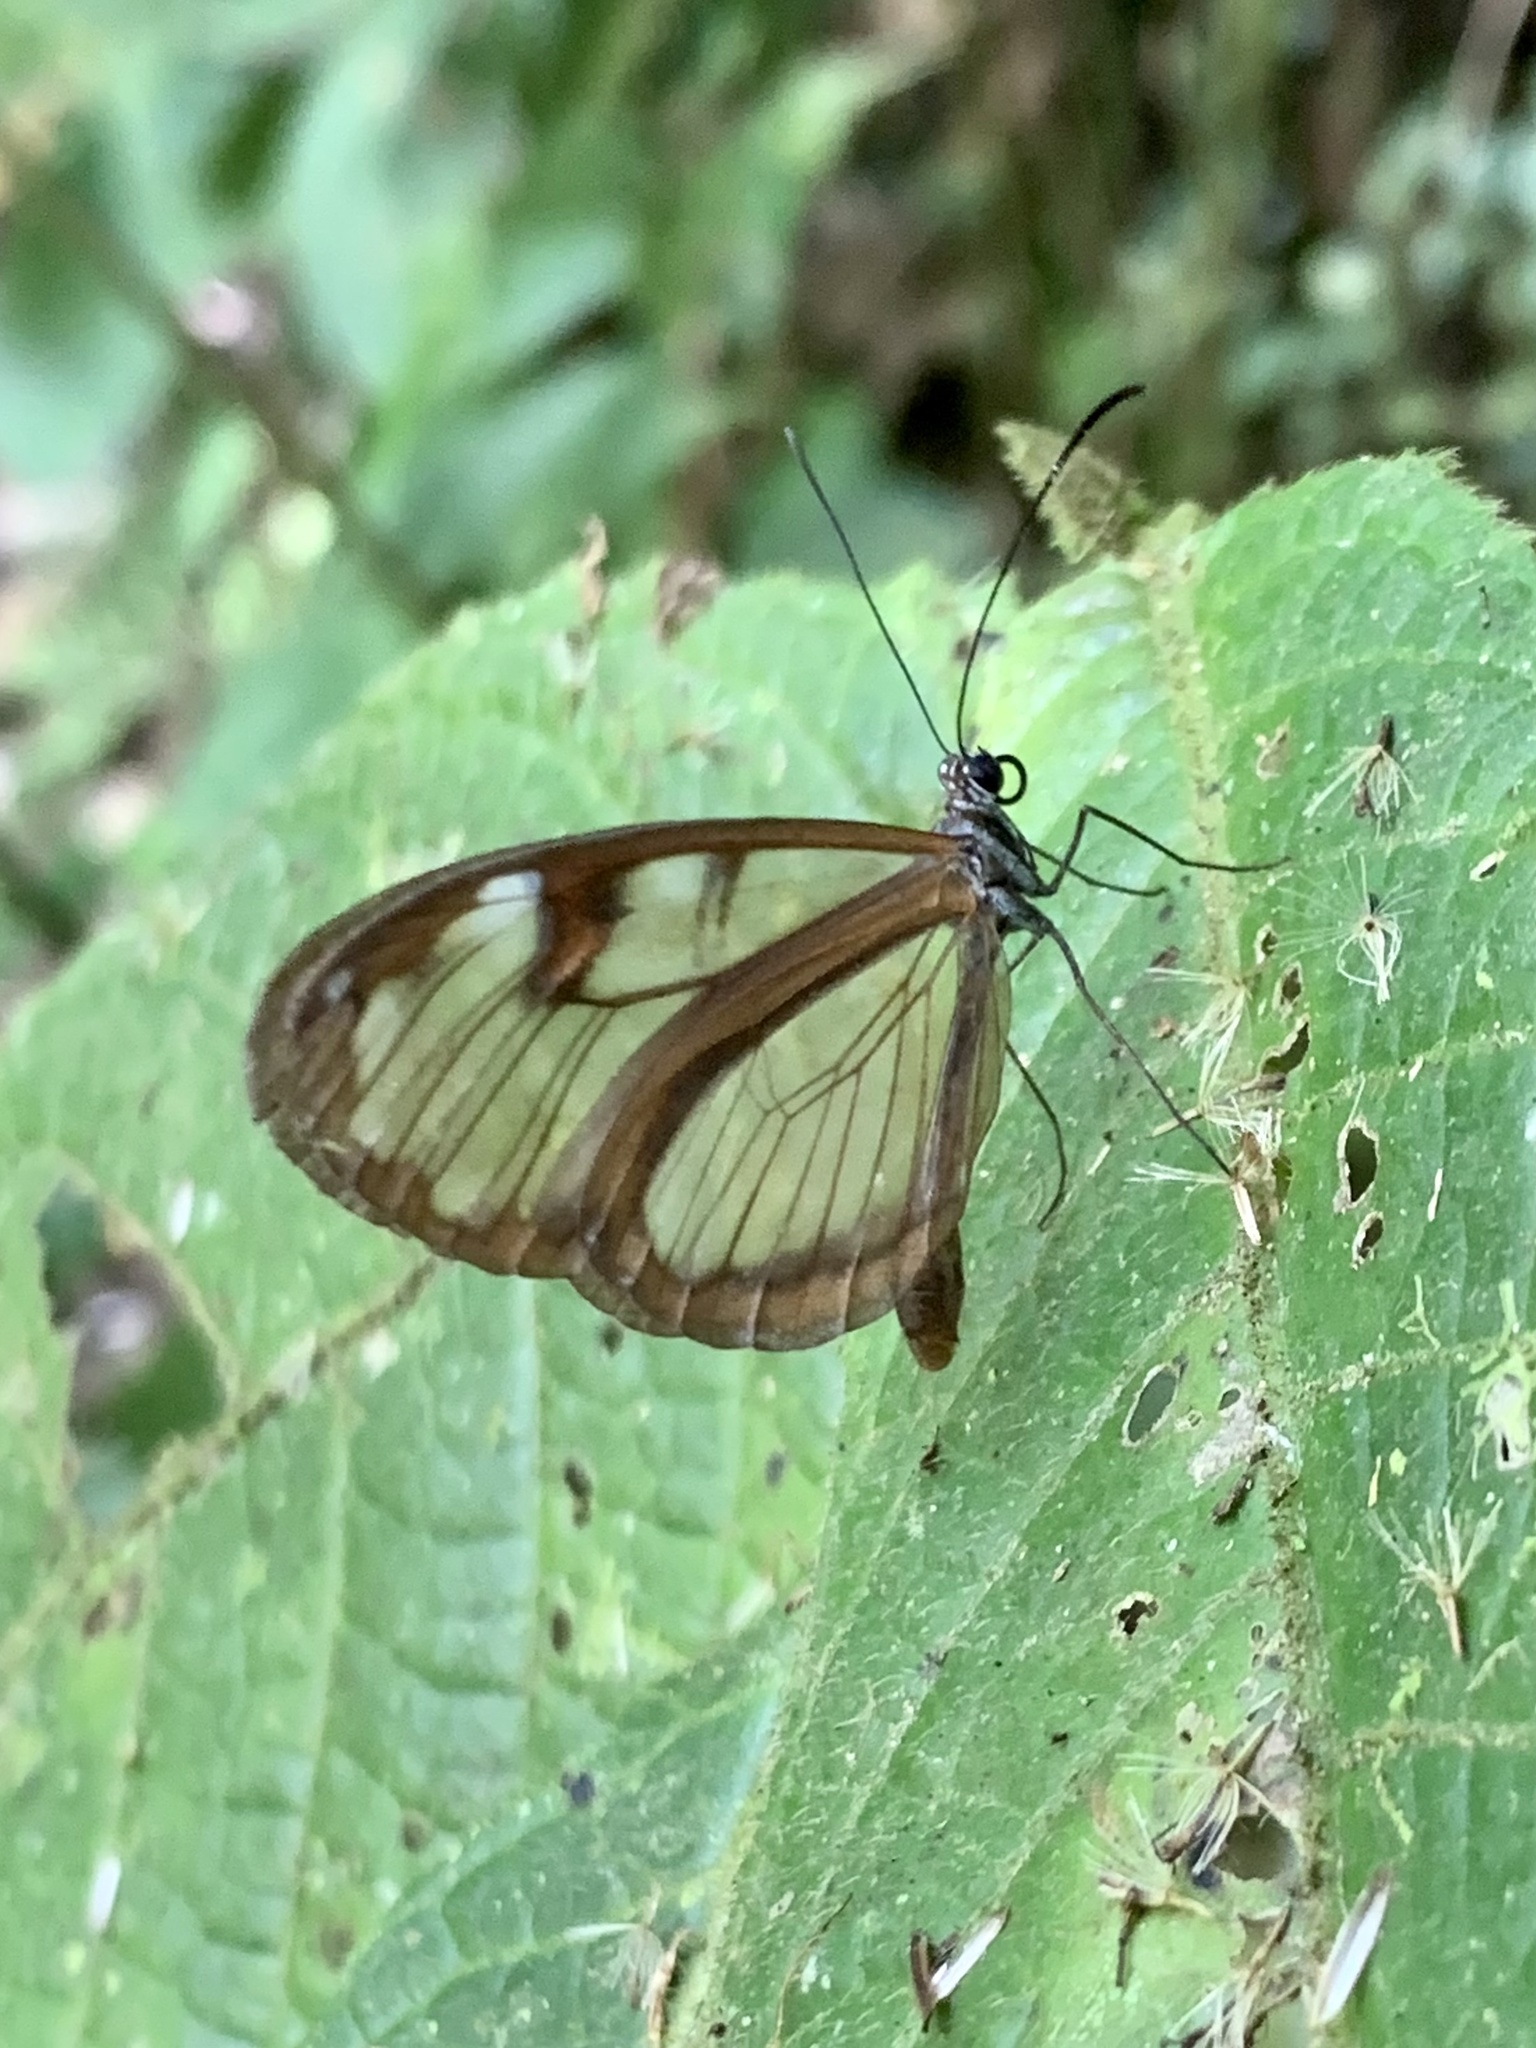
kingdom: Animalia
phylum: Arthropoda
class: Insecta
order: Lepidoptera
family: Nymphalidae
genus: Oleria
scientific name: Oleria fumata
